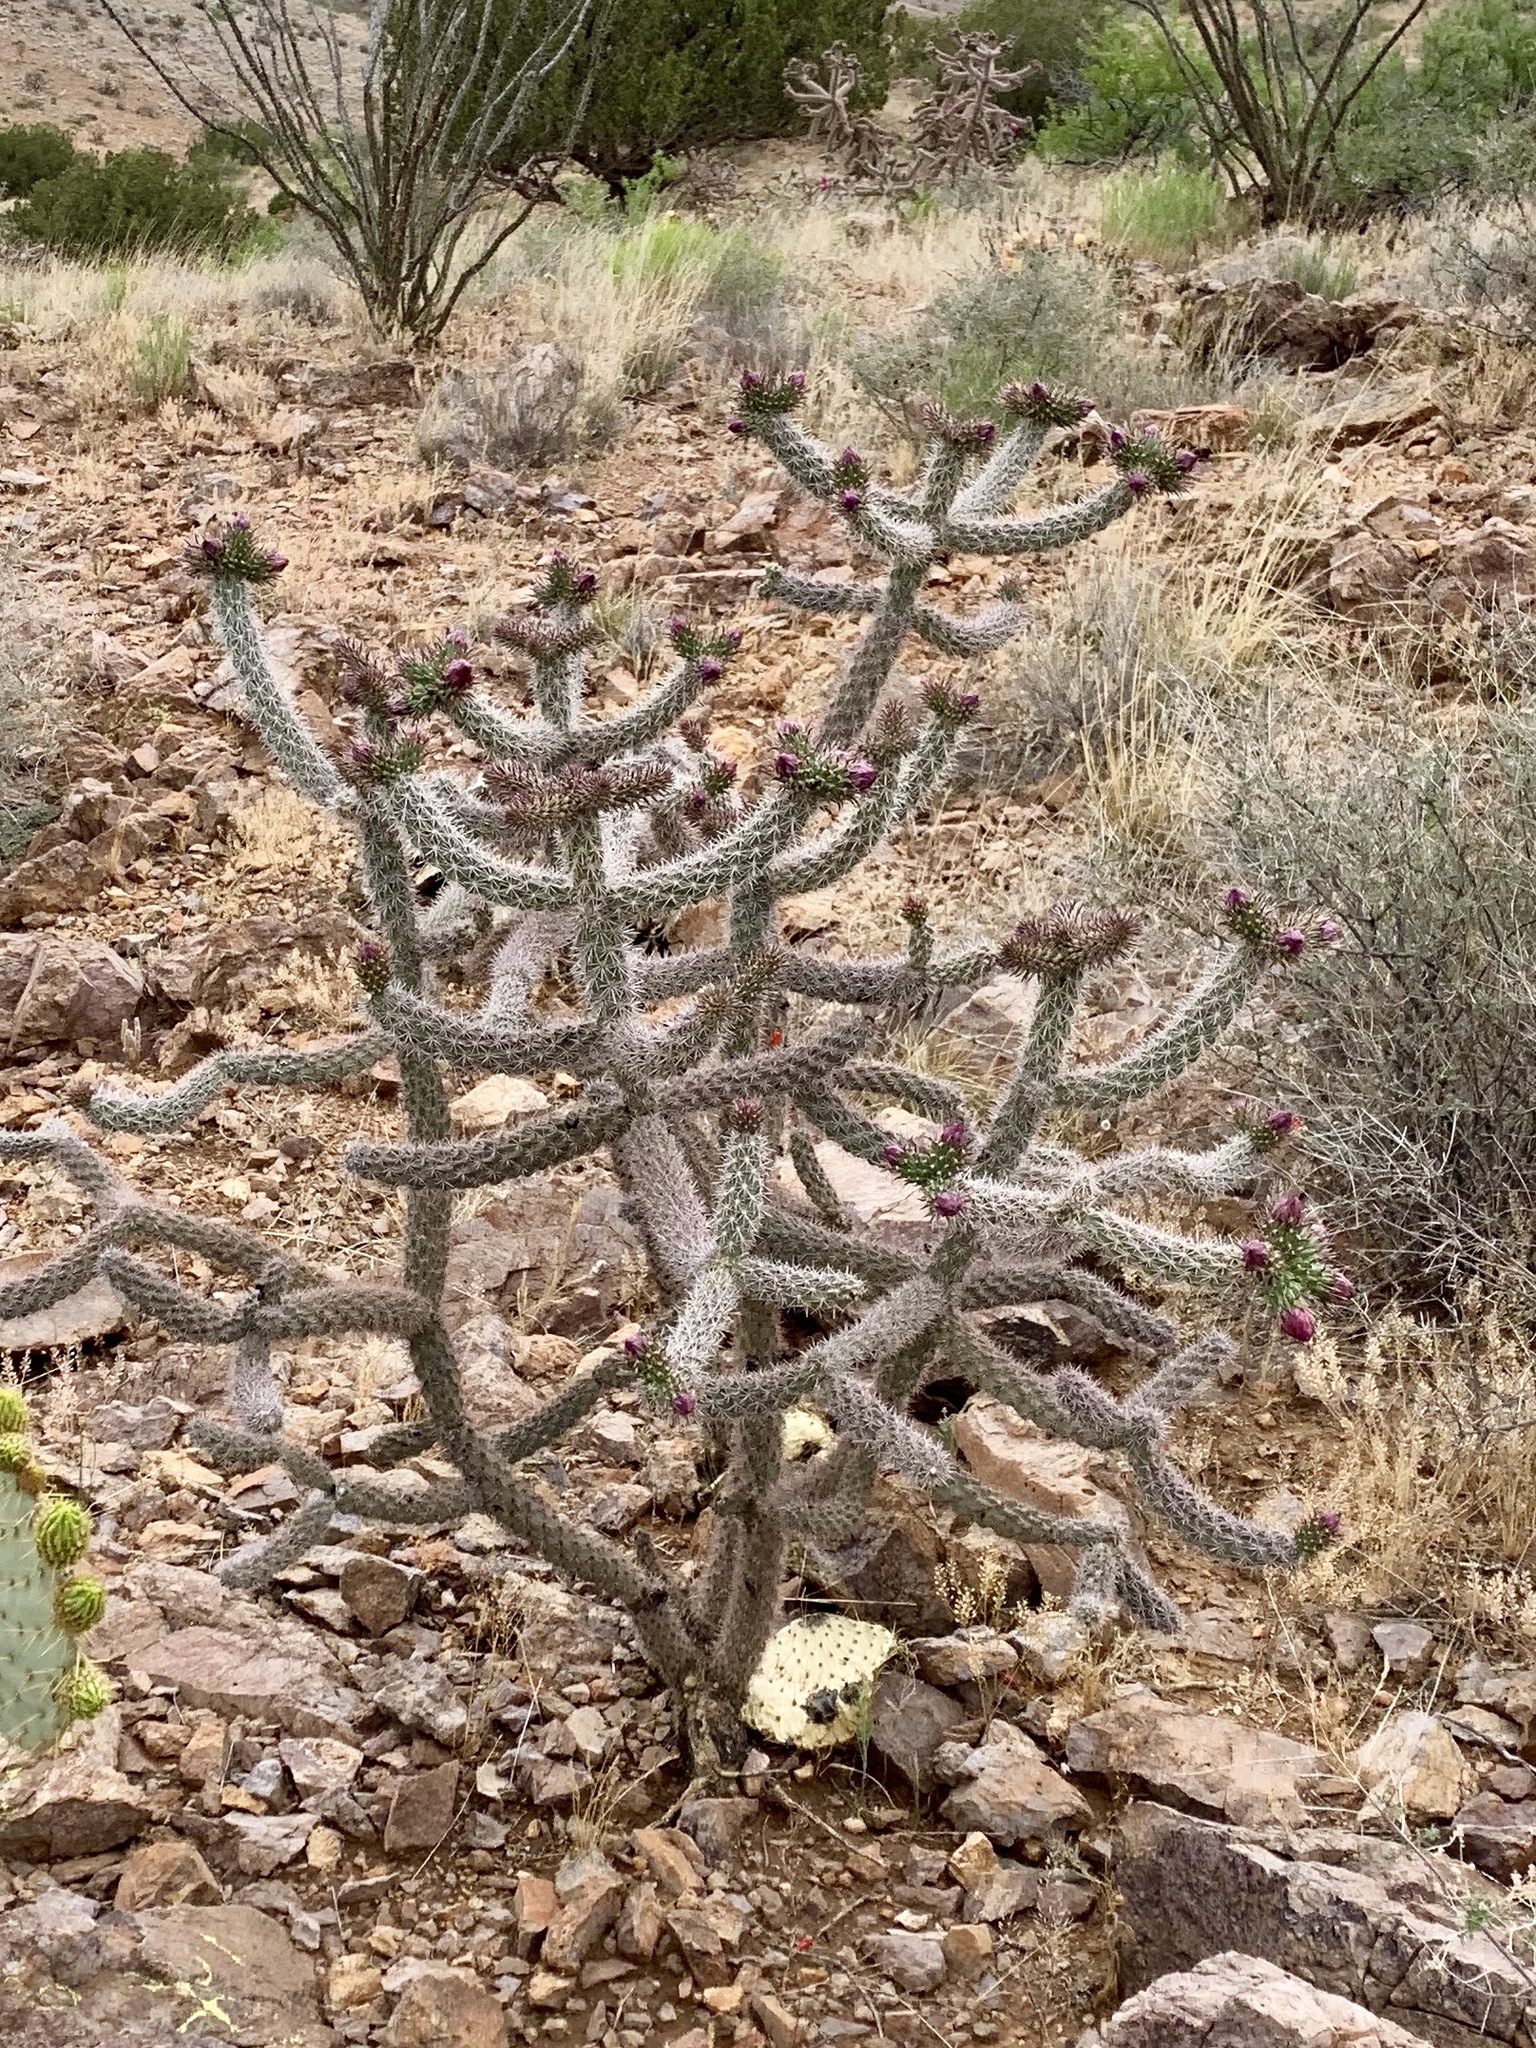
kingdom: Plantae
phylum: Tracheophyta
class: Magnoliopsida
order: Caryophyllales
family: Cactaceae
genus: Cylindropuntia
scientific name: Cylindropuntia imbricata
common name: Candelabrum cactus
